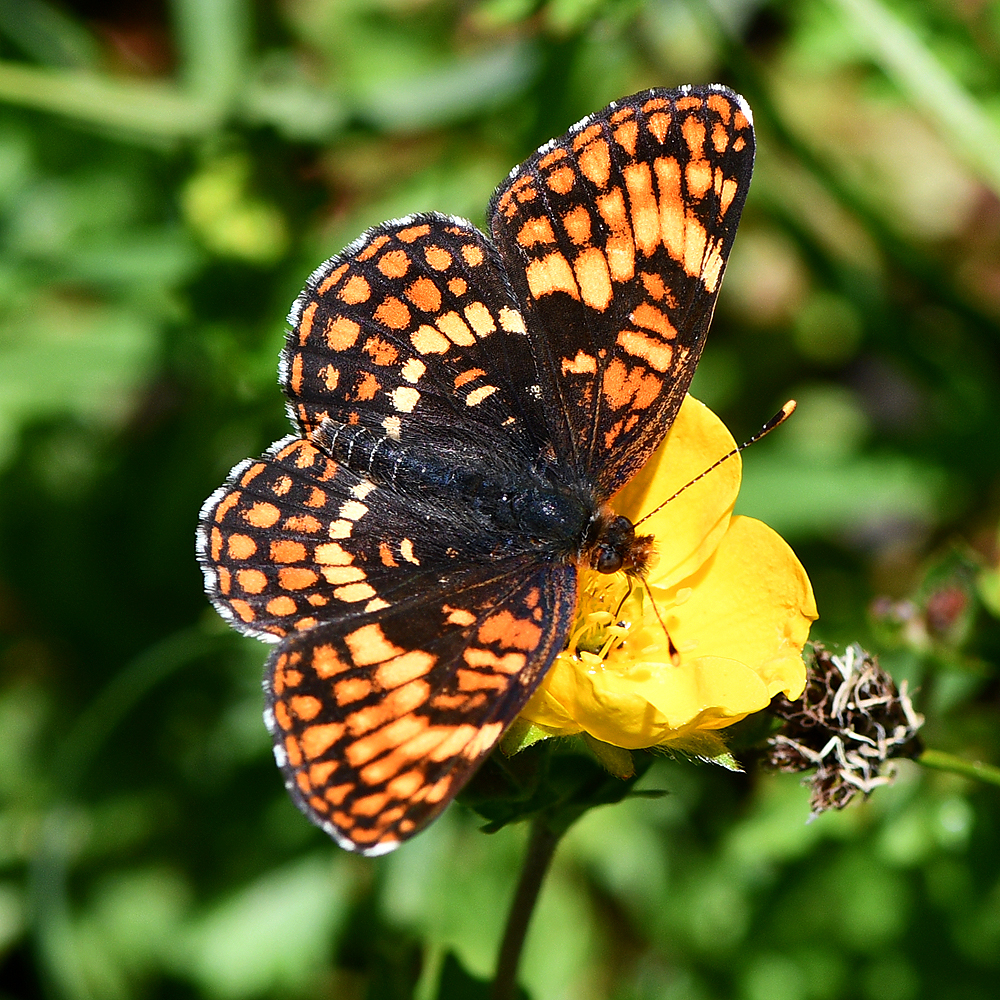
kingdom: Animalia
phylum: Arthropoda
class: Insecta
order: Lepidoptera
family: Nymphalidae
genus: Chlosyne
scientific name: Chlosyne hoffmanni
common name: Hoffmann's checkerspot
